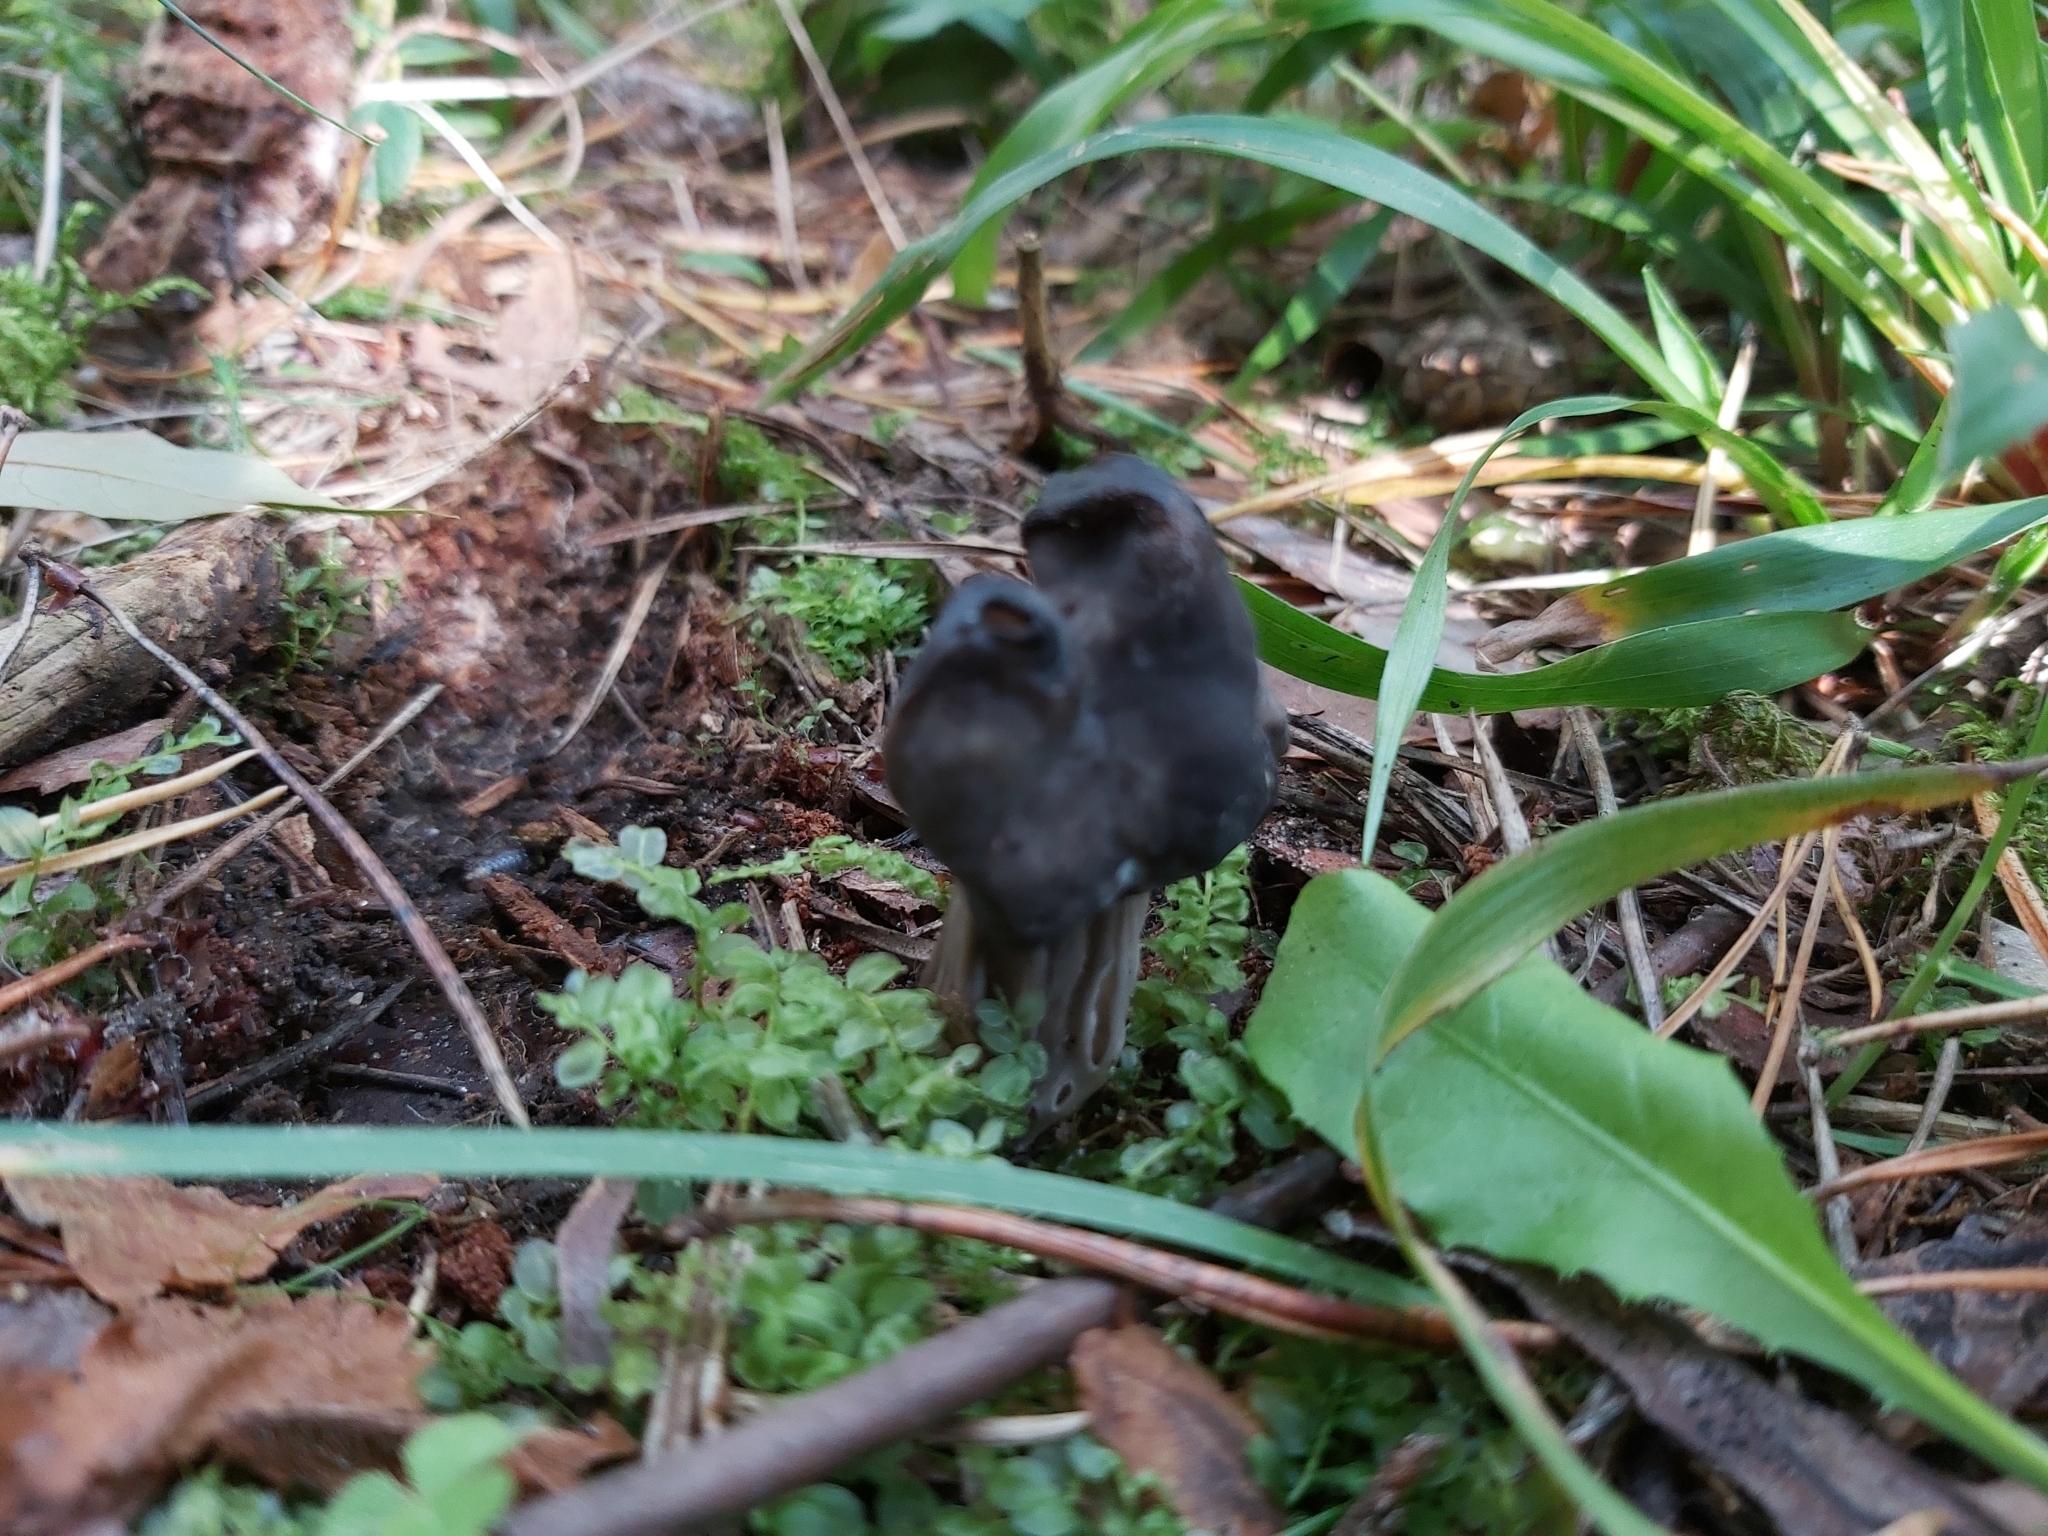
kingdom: Fungi
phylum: Ascomycota
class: Pezizomycetes
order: Pezizales
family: Helvellaceae
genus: Helvella
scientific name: Helvella lacunosa
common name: Elfin saddle
